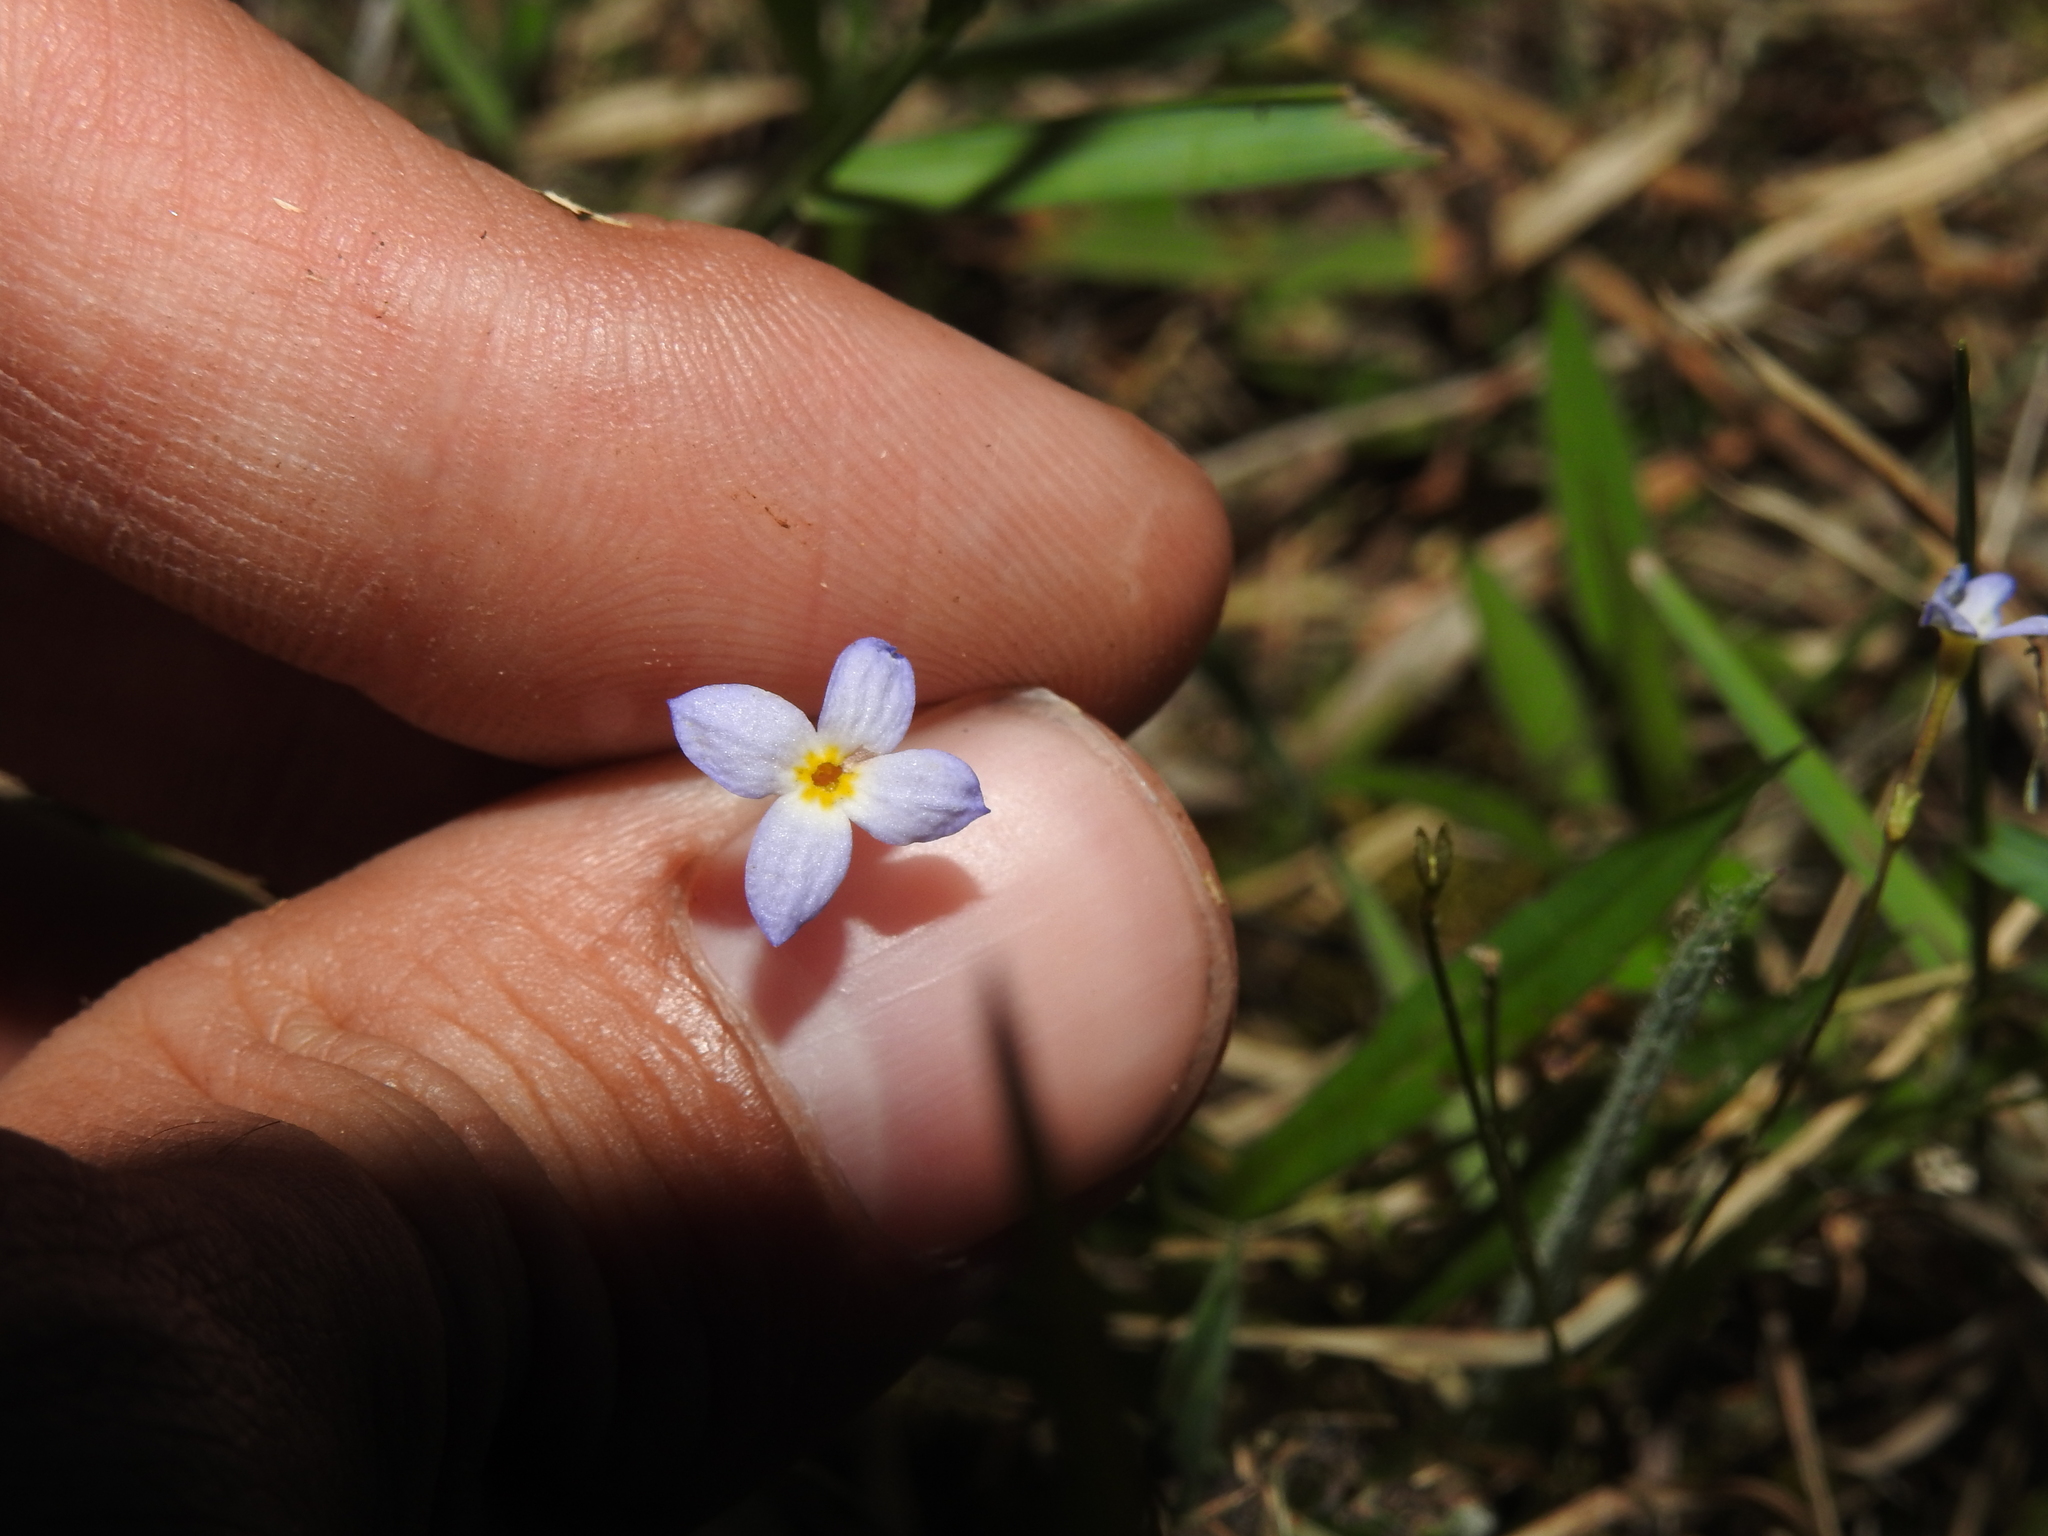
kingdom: Plantae
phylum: Tracheophyta
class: Magnoliopsida
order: Gentianales
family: Rubiaceae
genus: Houstonia
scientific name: Houstonia caerulea
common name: Bluets
